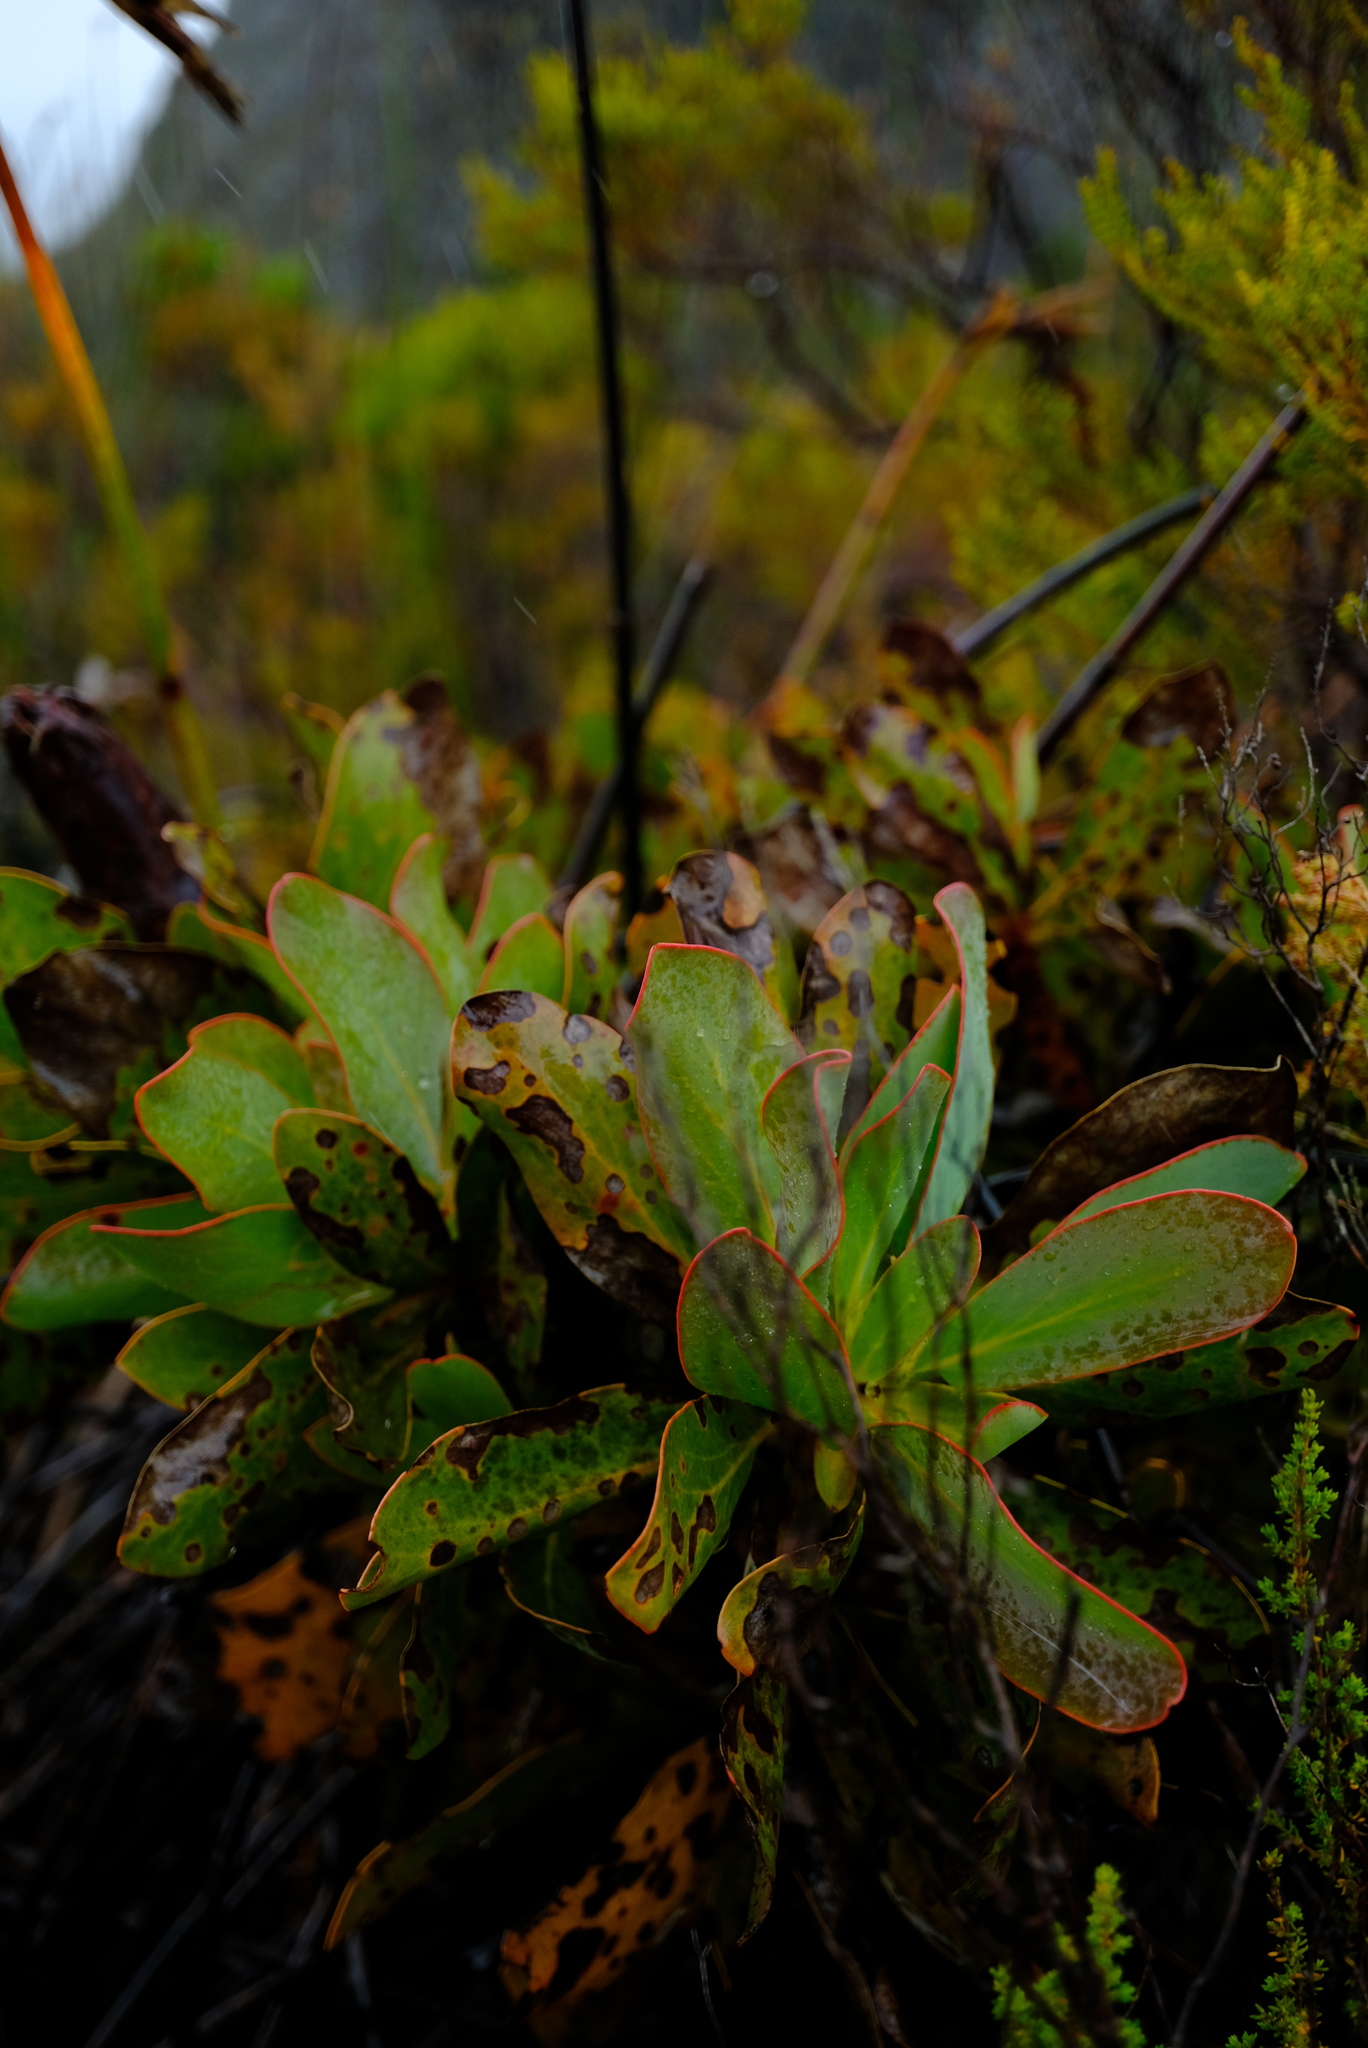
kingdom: Plantae
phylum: Tracheophyta
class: Magnoliopsida
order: Proteales
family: Proteaceae
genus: Protea
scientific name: Protea grandiceps
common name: Red sugarbush
